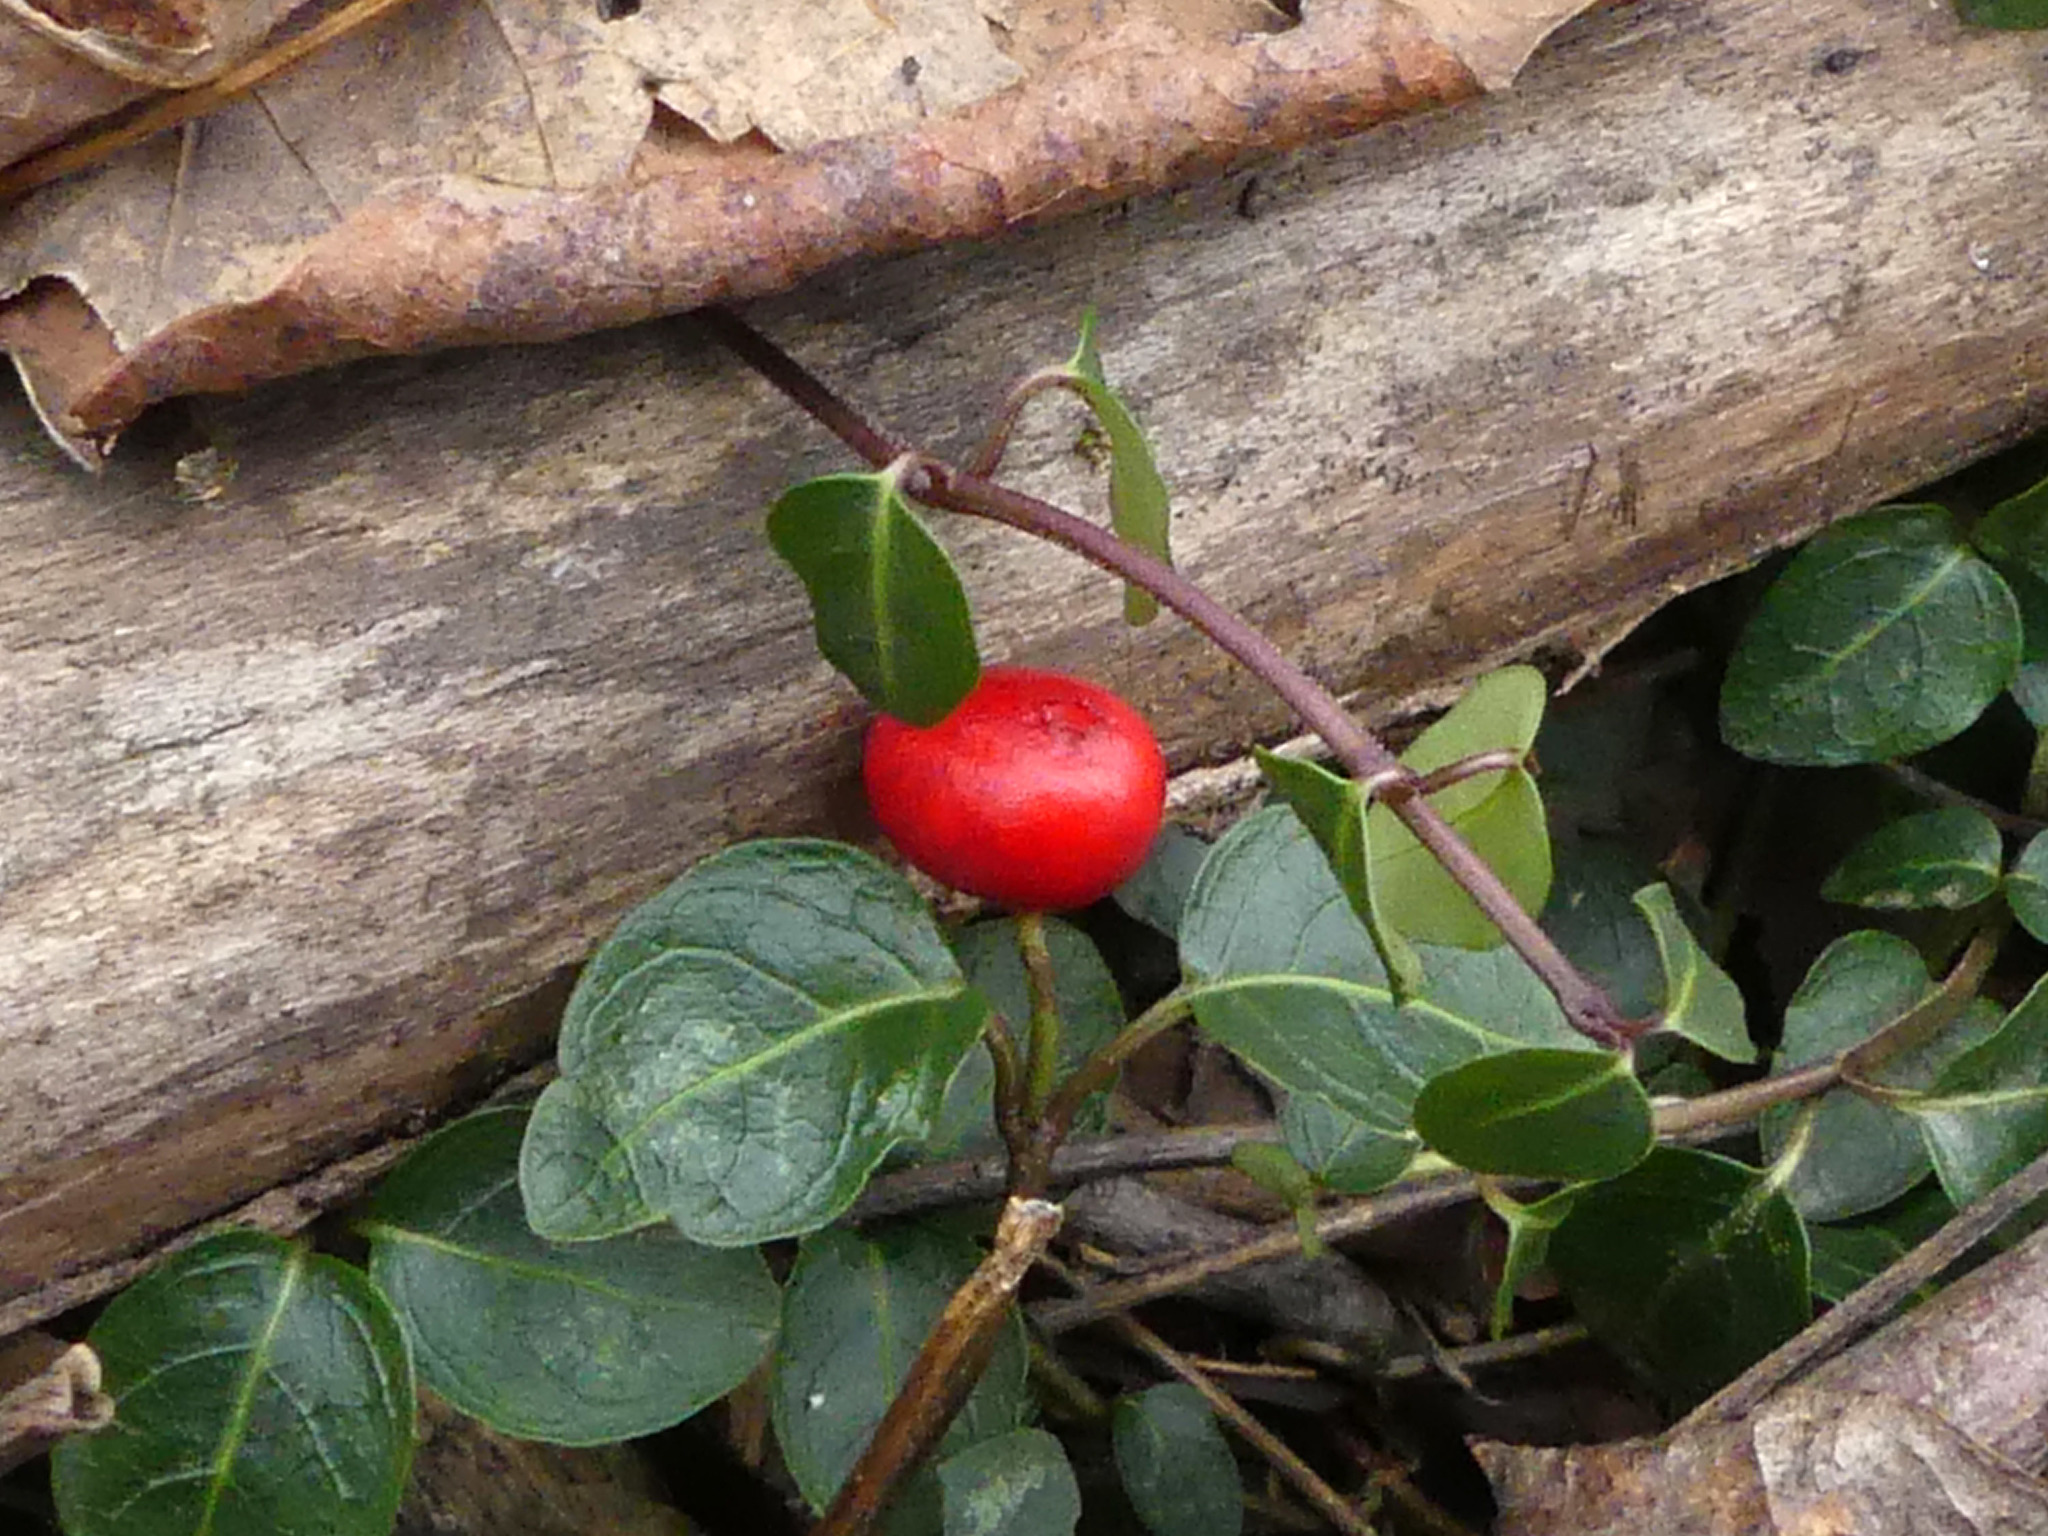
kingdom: Plantae
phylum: Tracheophyta
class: Magnoliopsida
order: Gentianales
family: Rubiaceae
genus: Mitchella
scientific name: Mitchella repens
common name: Partridge-berry
